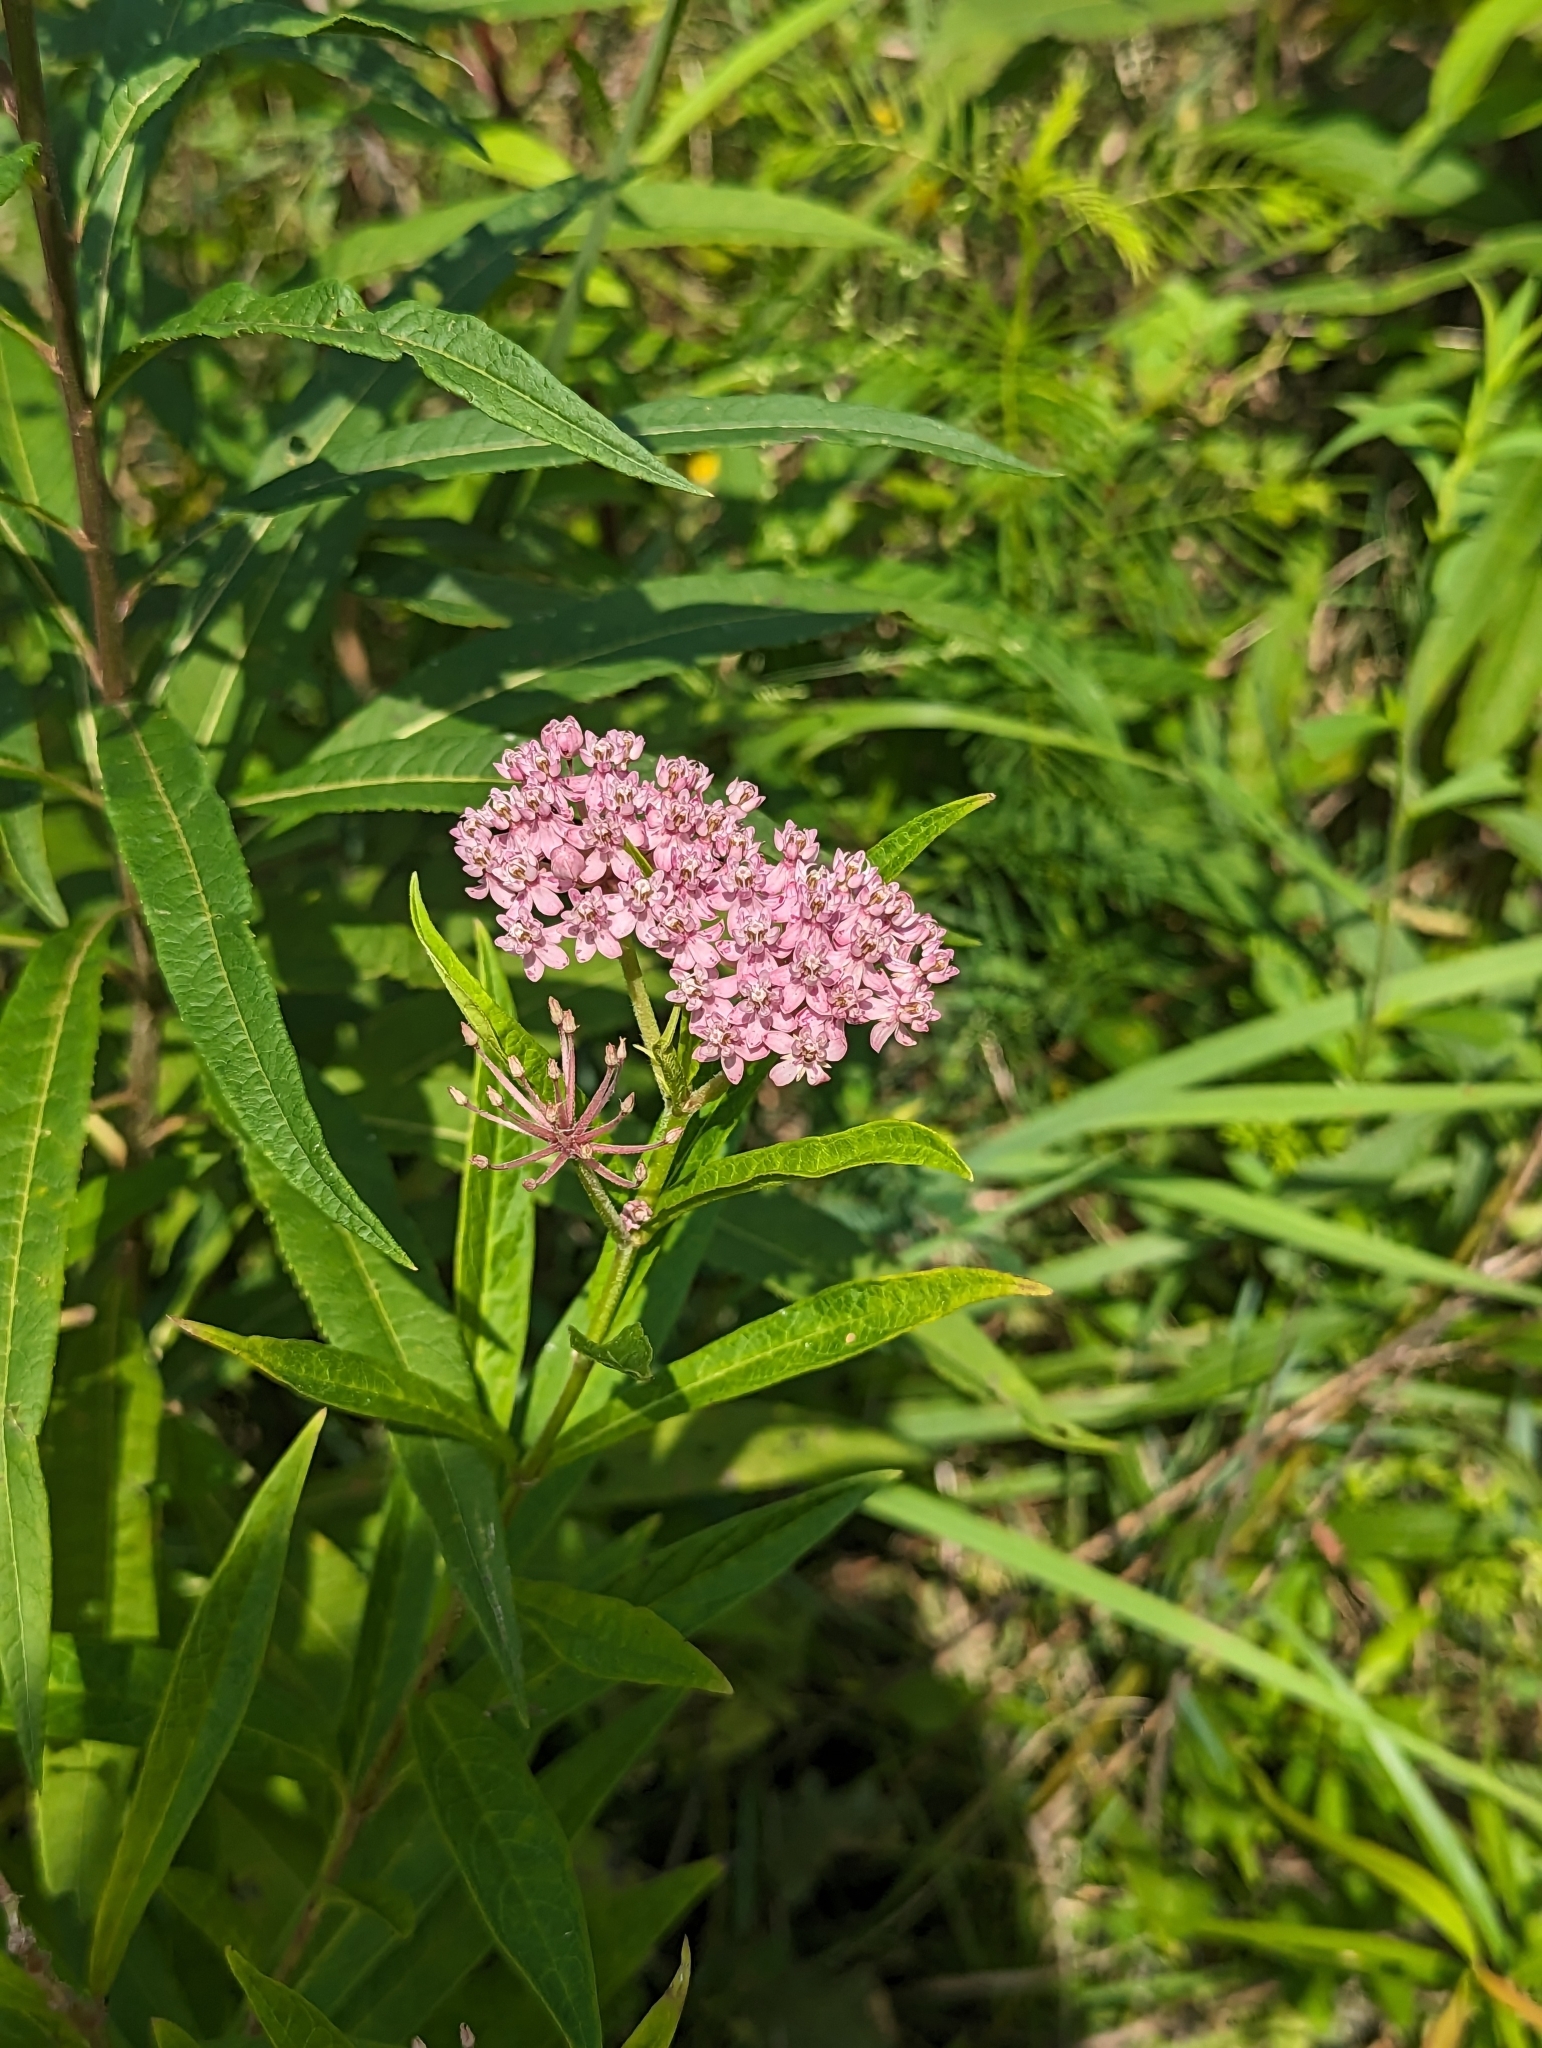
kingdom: Plantae
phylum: Tracheophyta
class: Magnoliopsida
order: Gentianales
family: Apocynaceae
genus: Asclepias
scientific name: Asclepias incarnata
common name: Swamp milkweed
